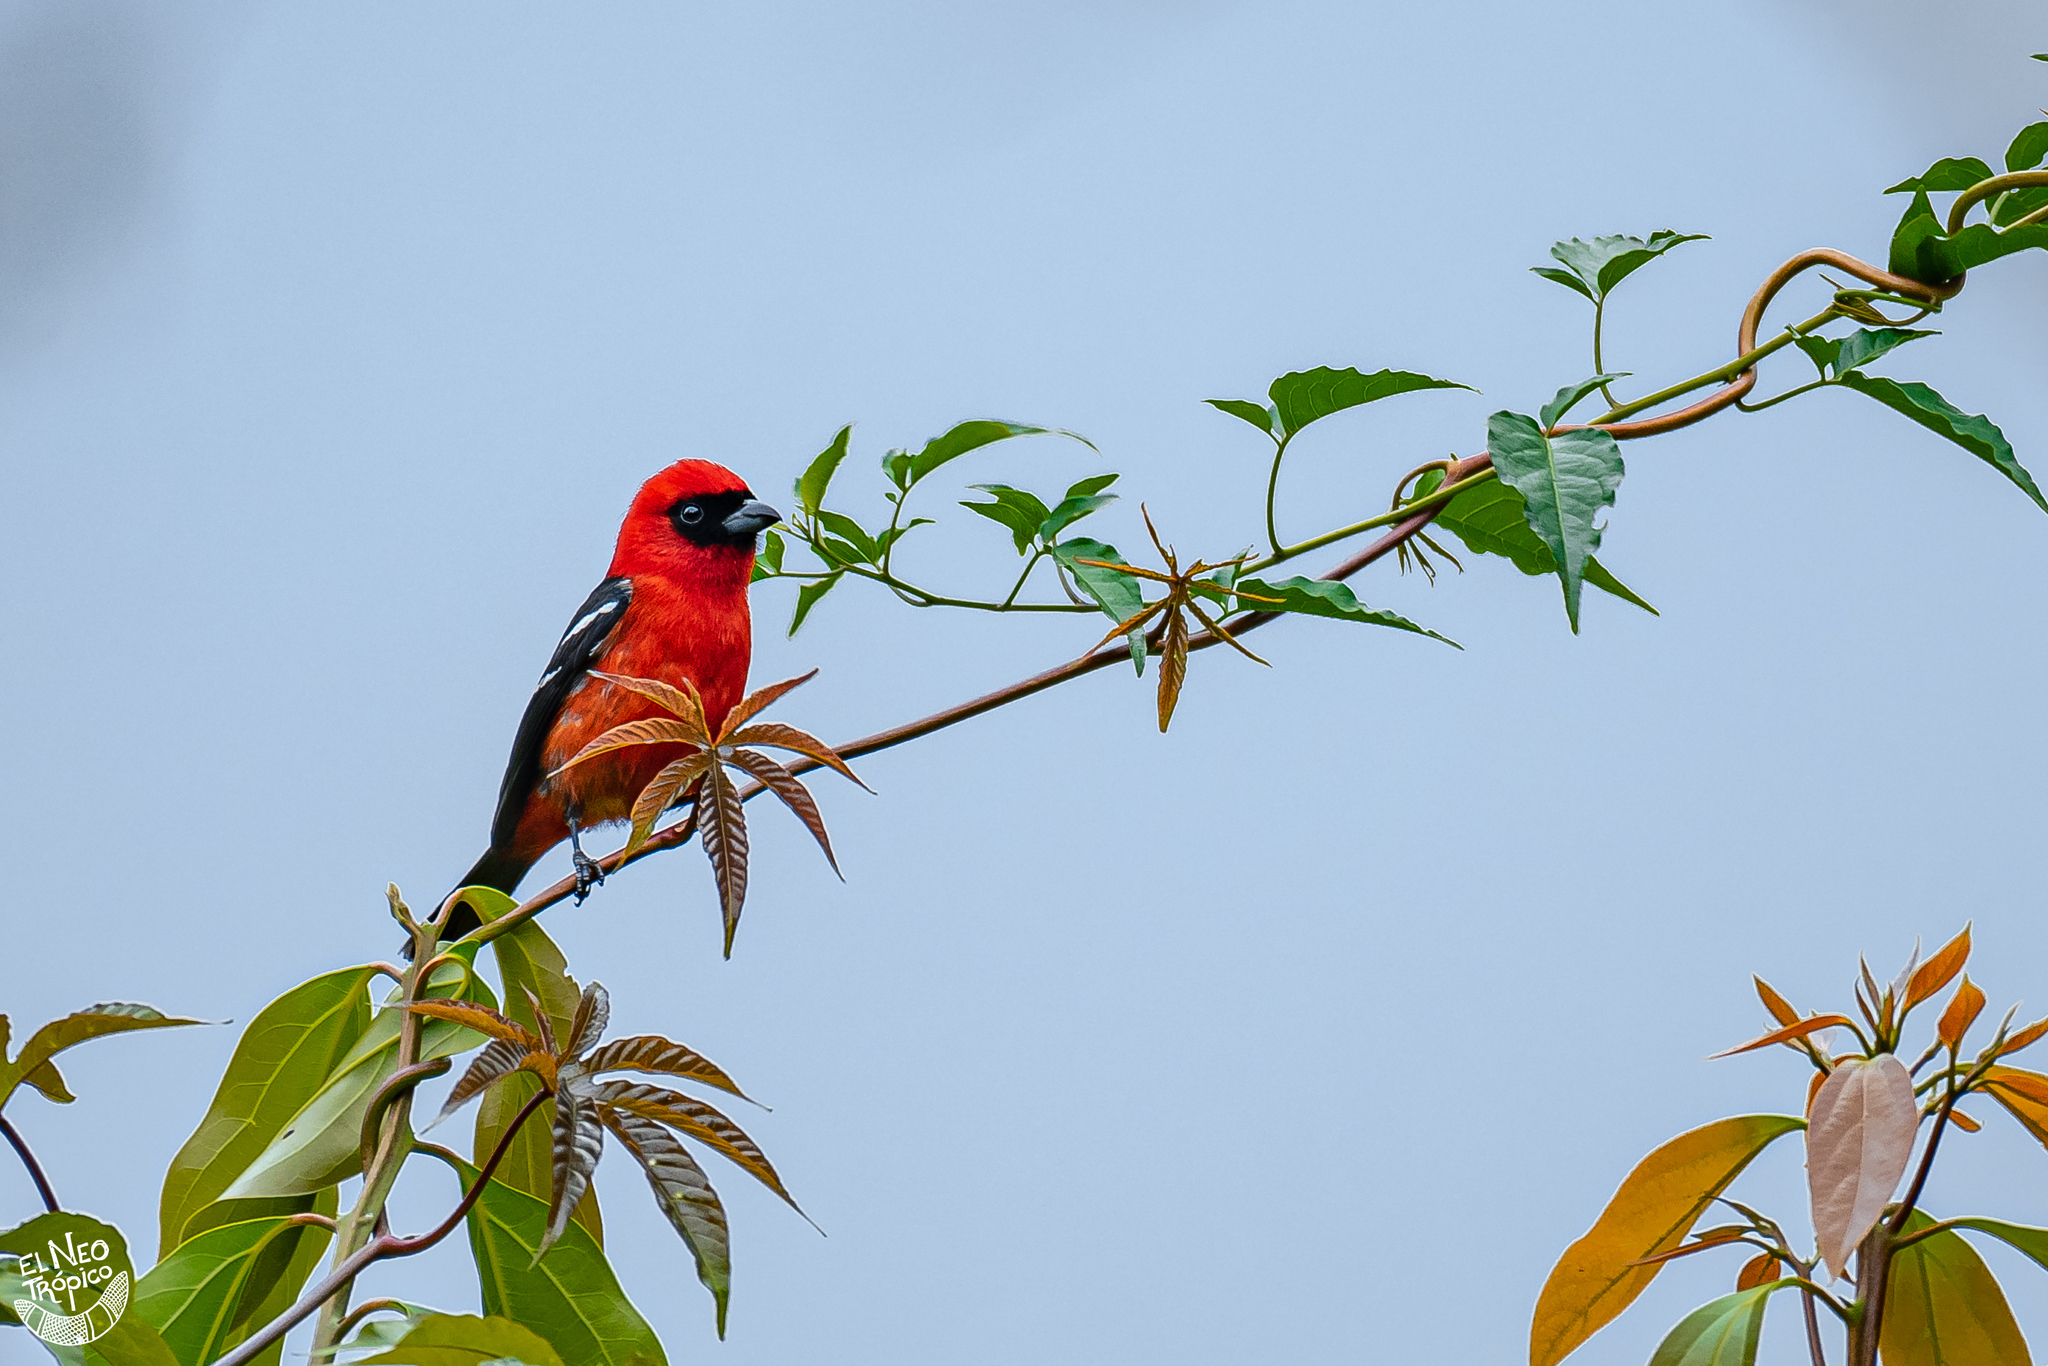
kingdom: Animalia
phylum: Chordata
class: Aves
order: Passeriformes
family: Cardinalidae
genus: Piranga
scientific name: Piranga leucoptera
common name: White-winged tanager
